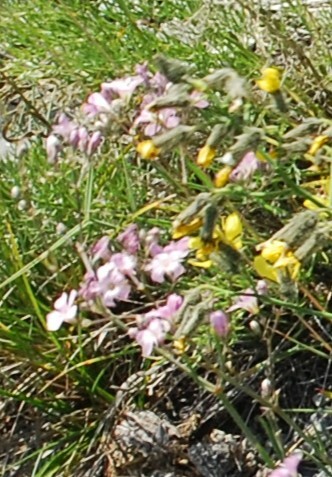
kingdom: Plantae
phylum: Tracheophyta
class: Magnoliopsida
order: Caryophyllales
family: Caryophyllaceae
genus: Gypsophila
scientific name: Gypsophila patrinii
